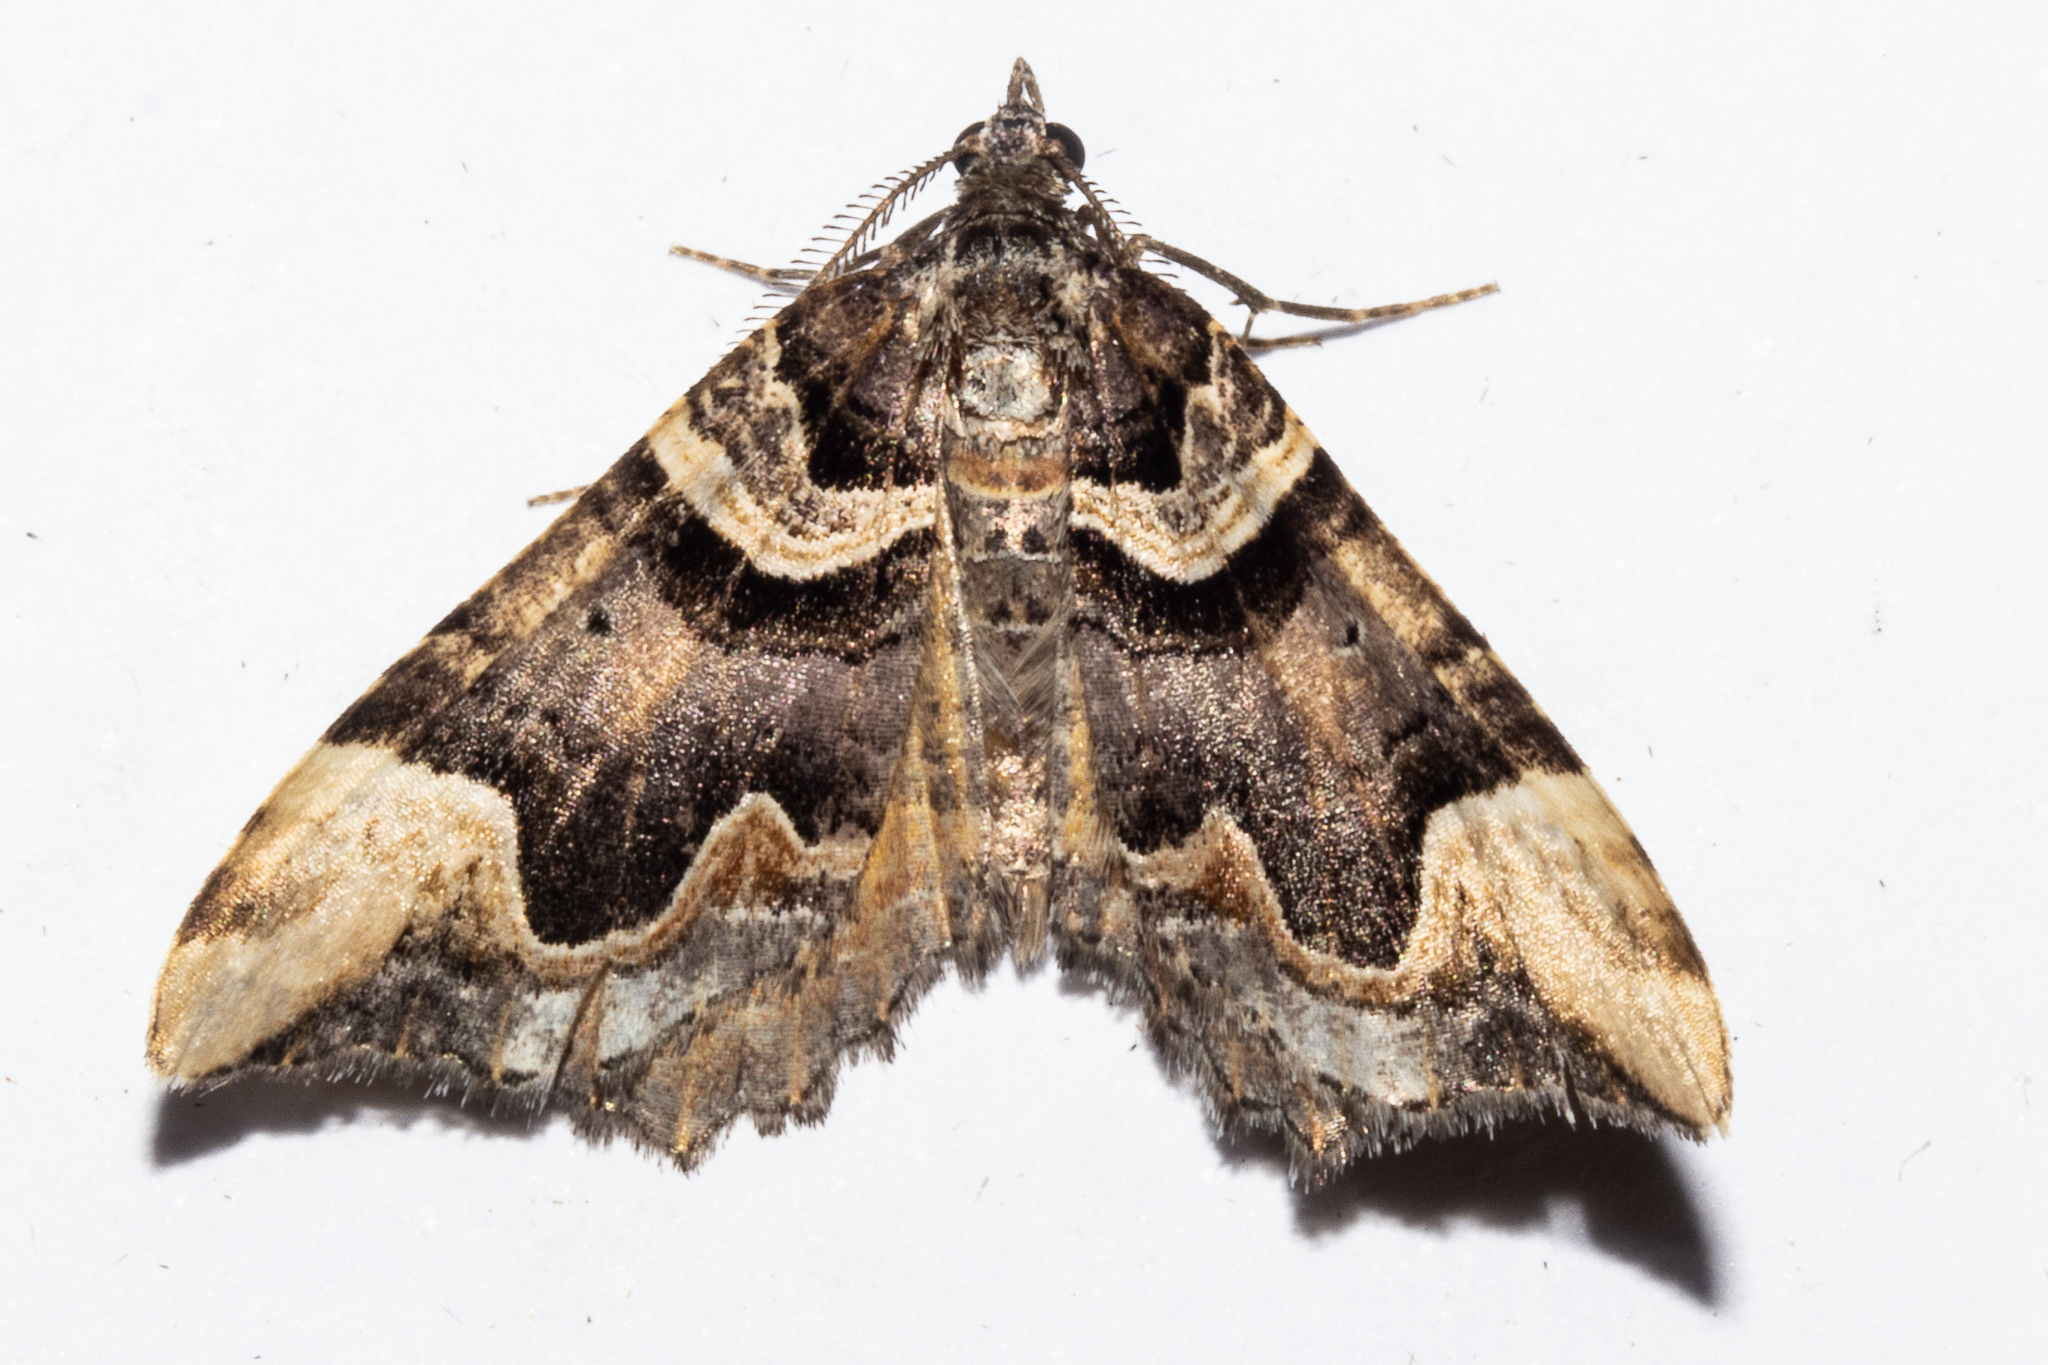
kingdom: Animalia
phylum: Arthropoda
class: Insecta
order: Lepidoptera
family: Geometridae
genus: Asaphodes
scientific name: Asaphodes chlamydota
